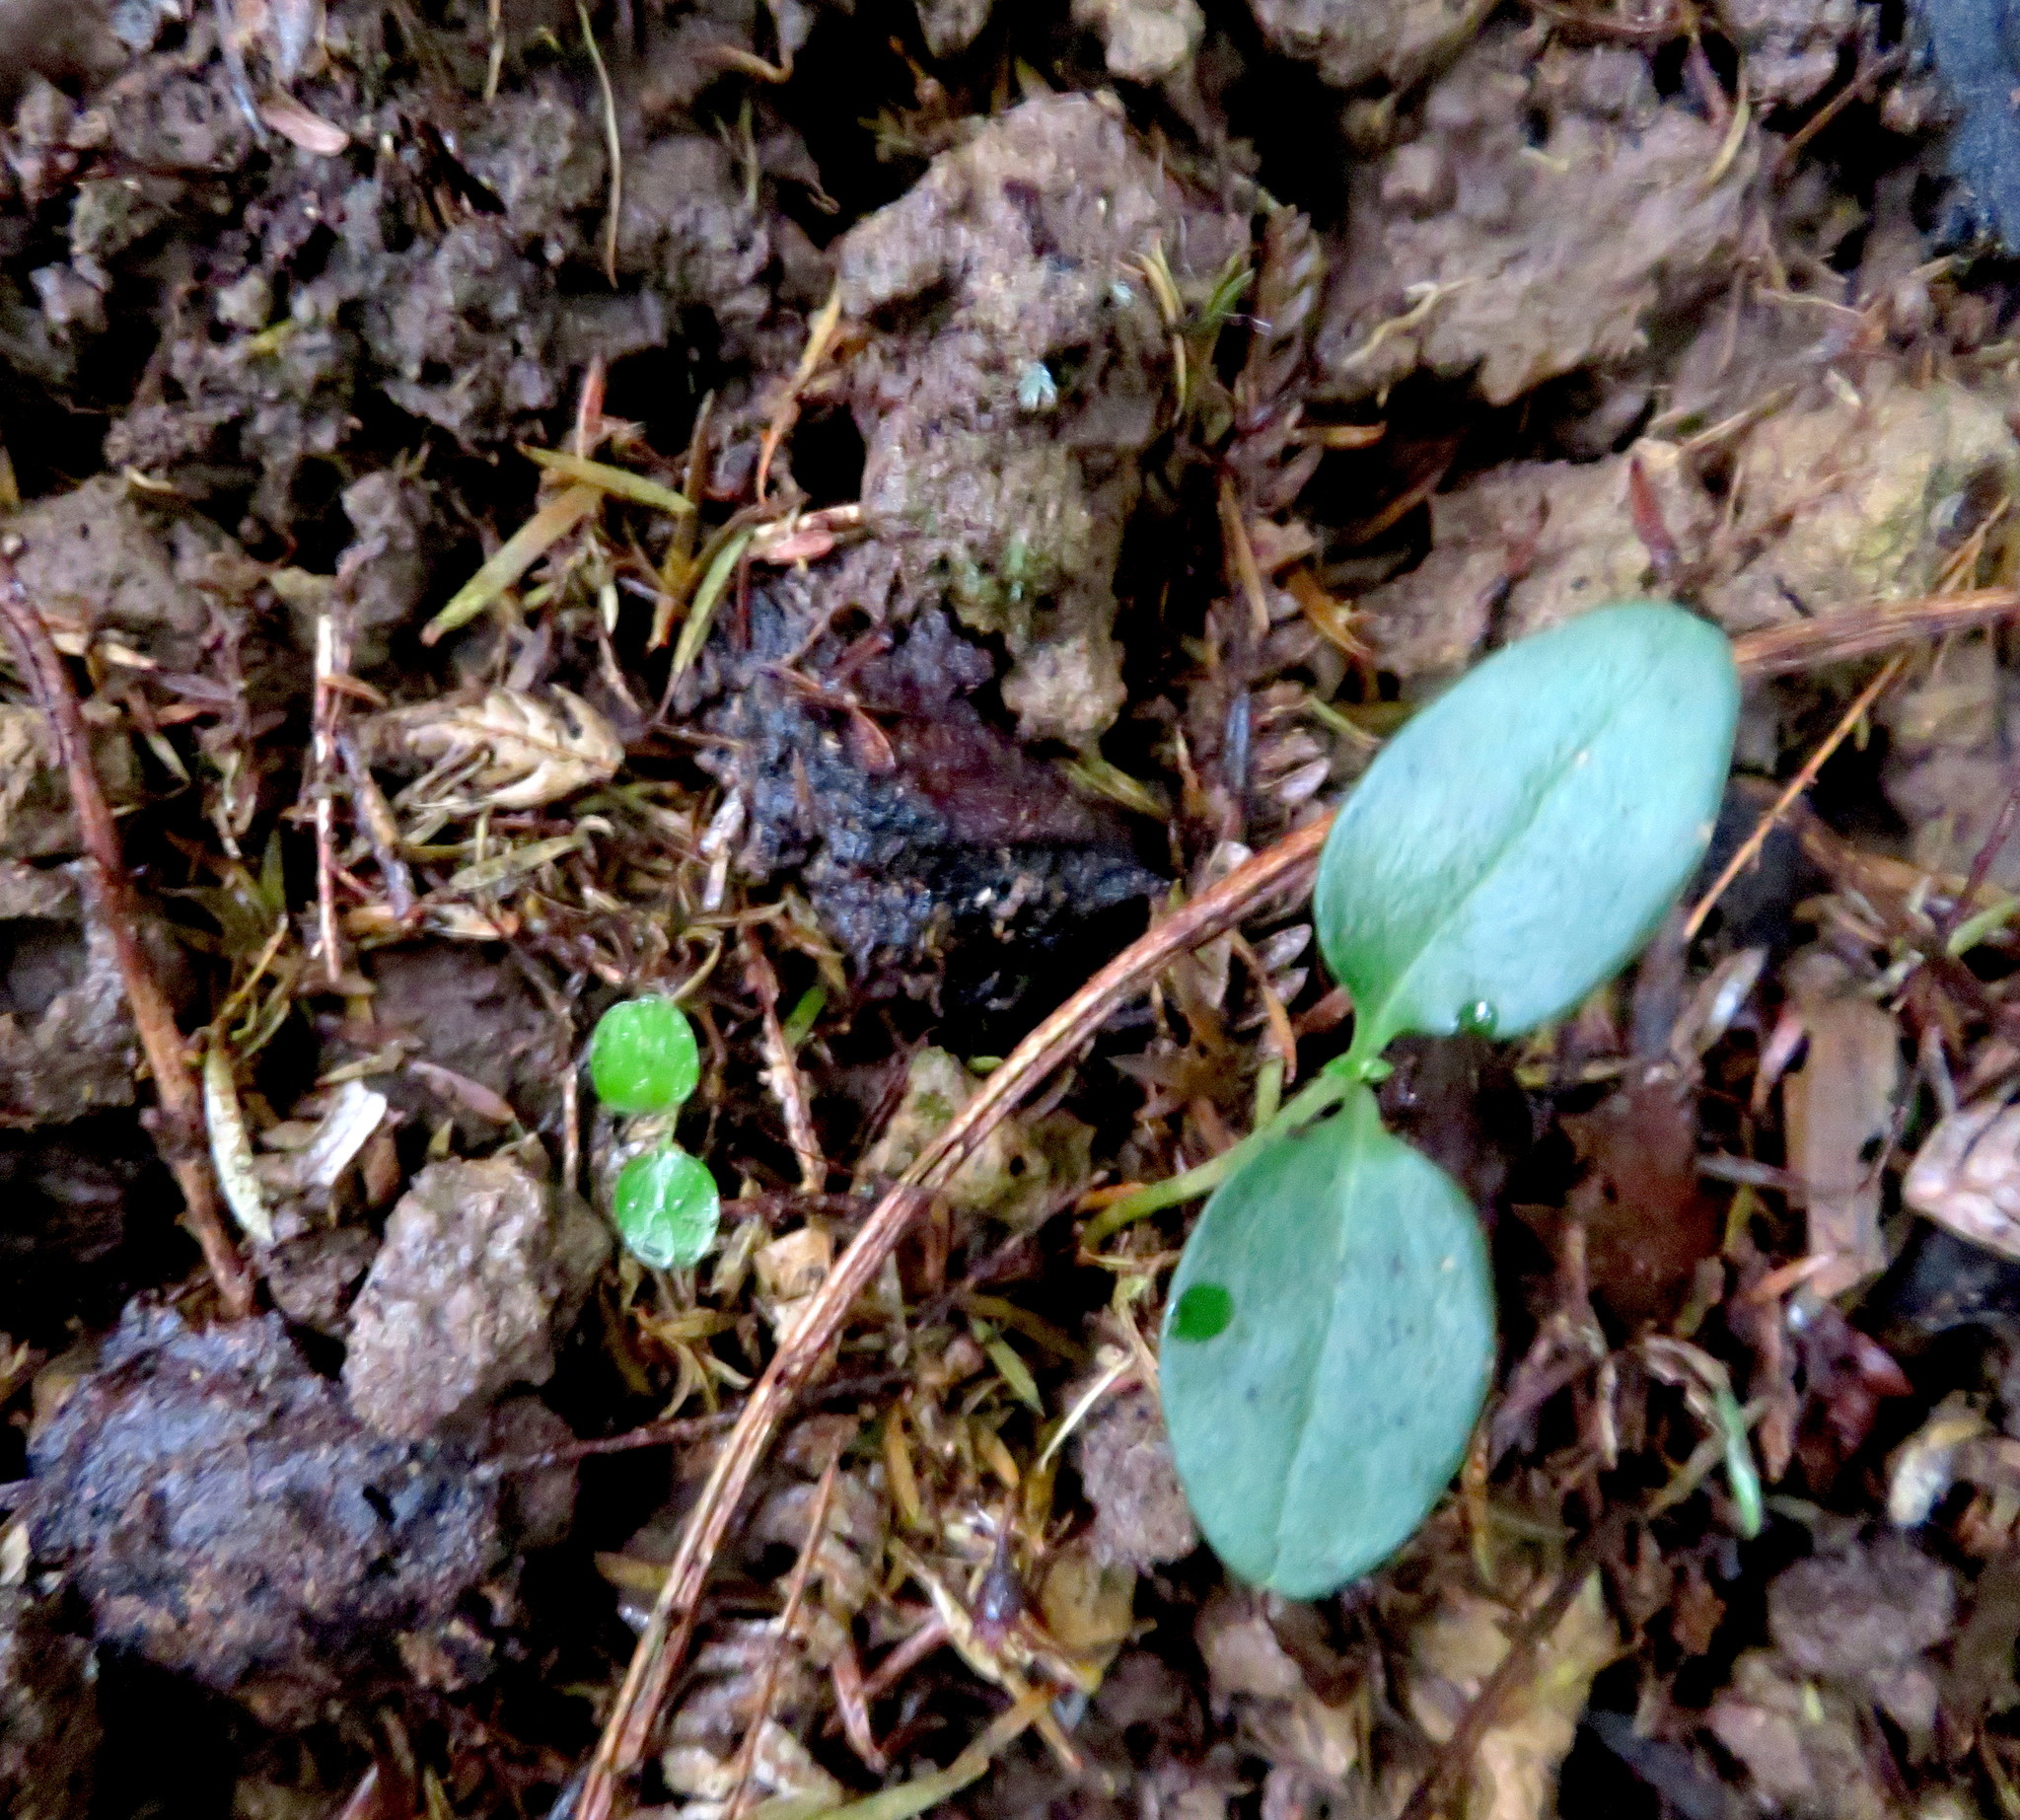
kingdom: Plantae
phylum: Tracheophyta
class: Magnoliopsida
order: Lamiales
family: Oleaceae
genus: Ligustrum
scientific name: Ligustrum lucidum
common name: Glossy privet
